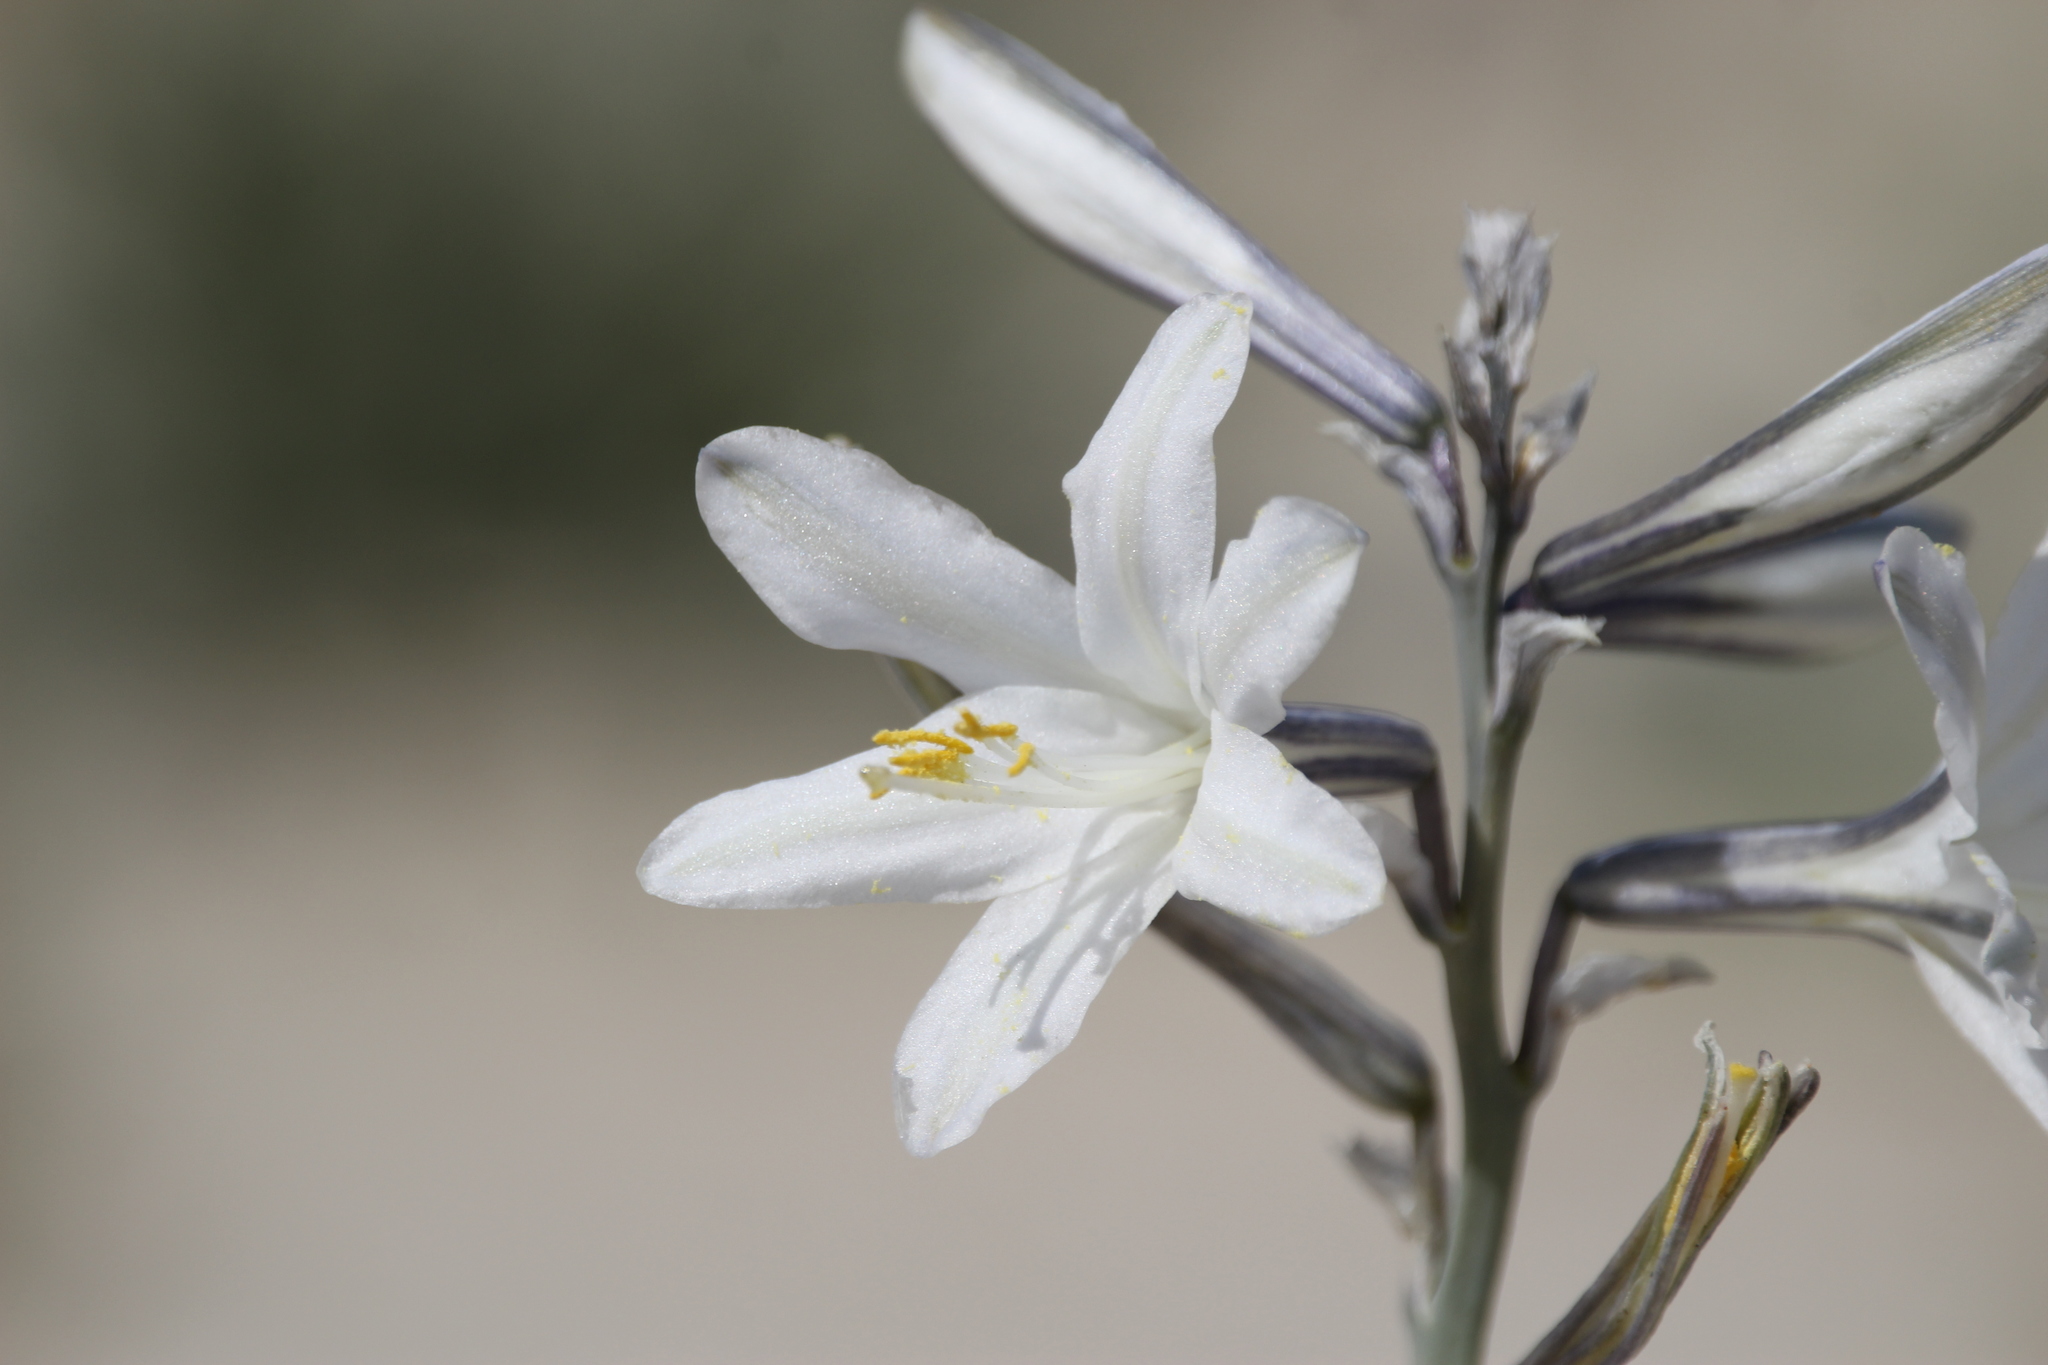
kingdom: Plantae
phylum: Tracheophyta
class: Liliopsida
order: Asparagales
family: Asparagaceae
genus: Hesperocallis
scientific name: Hesperocallis undulata
